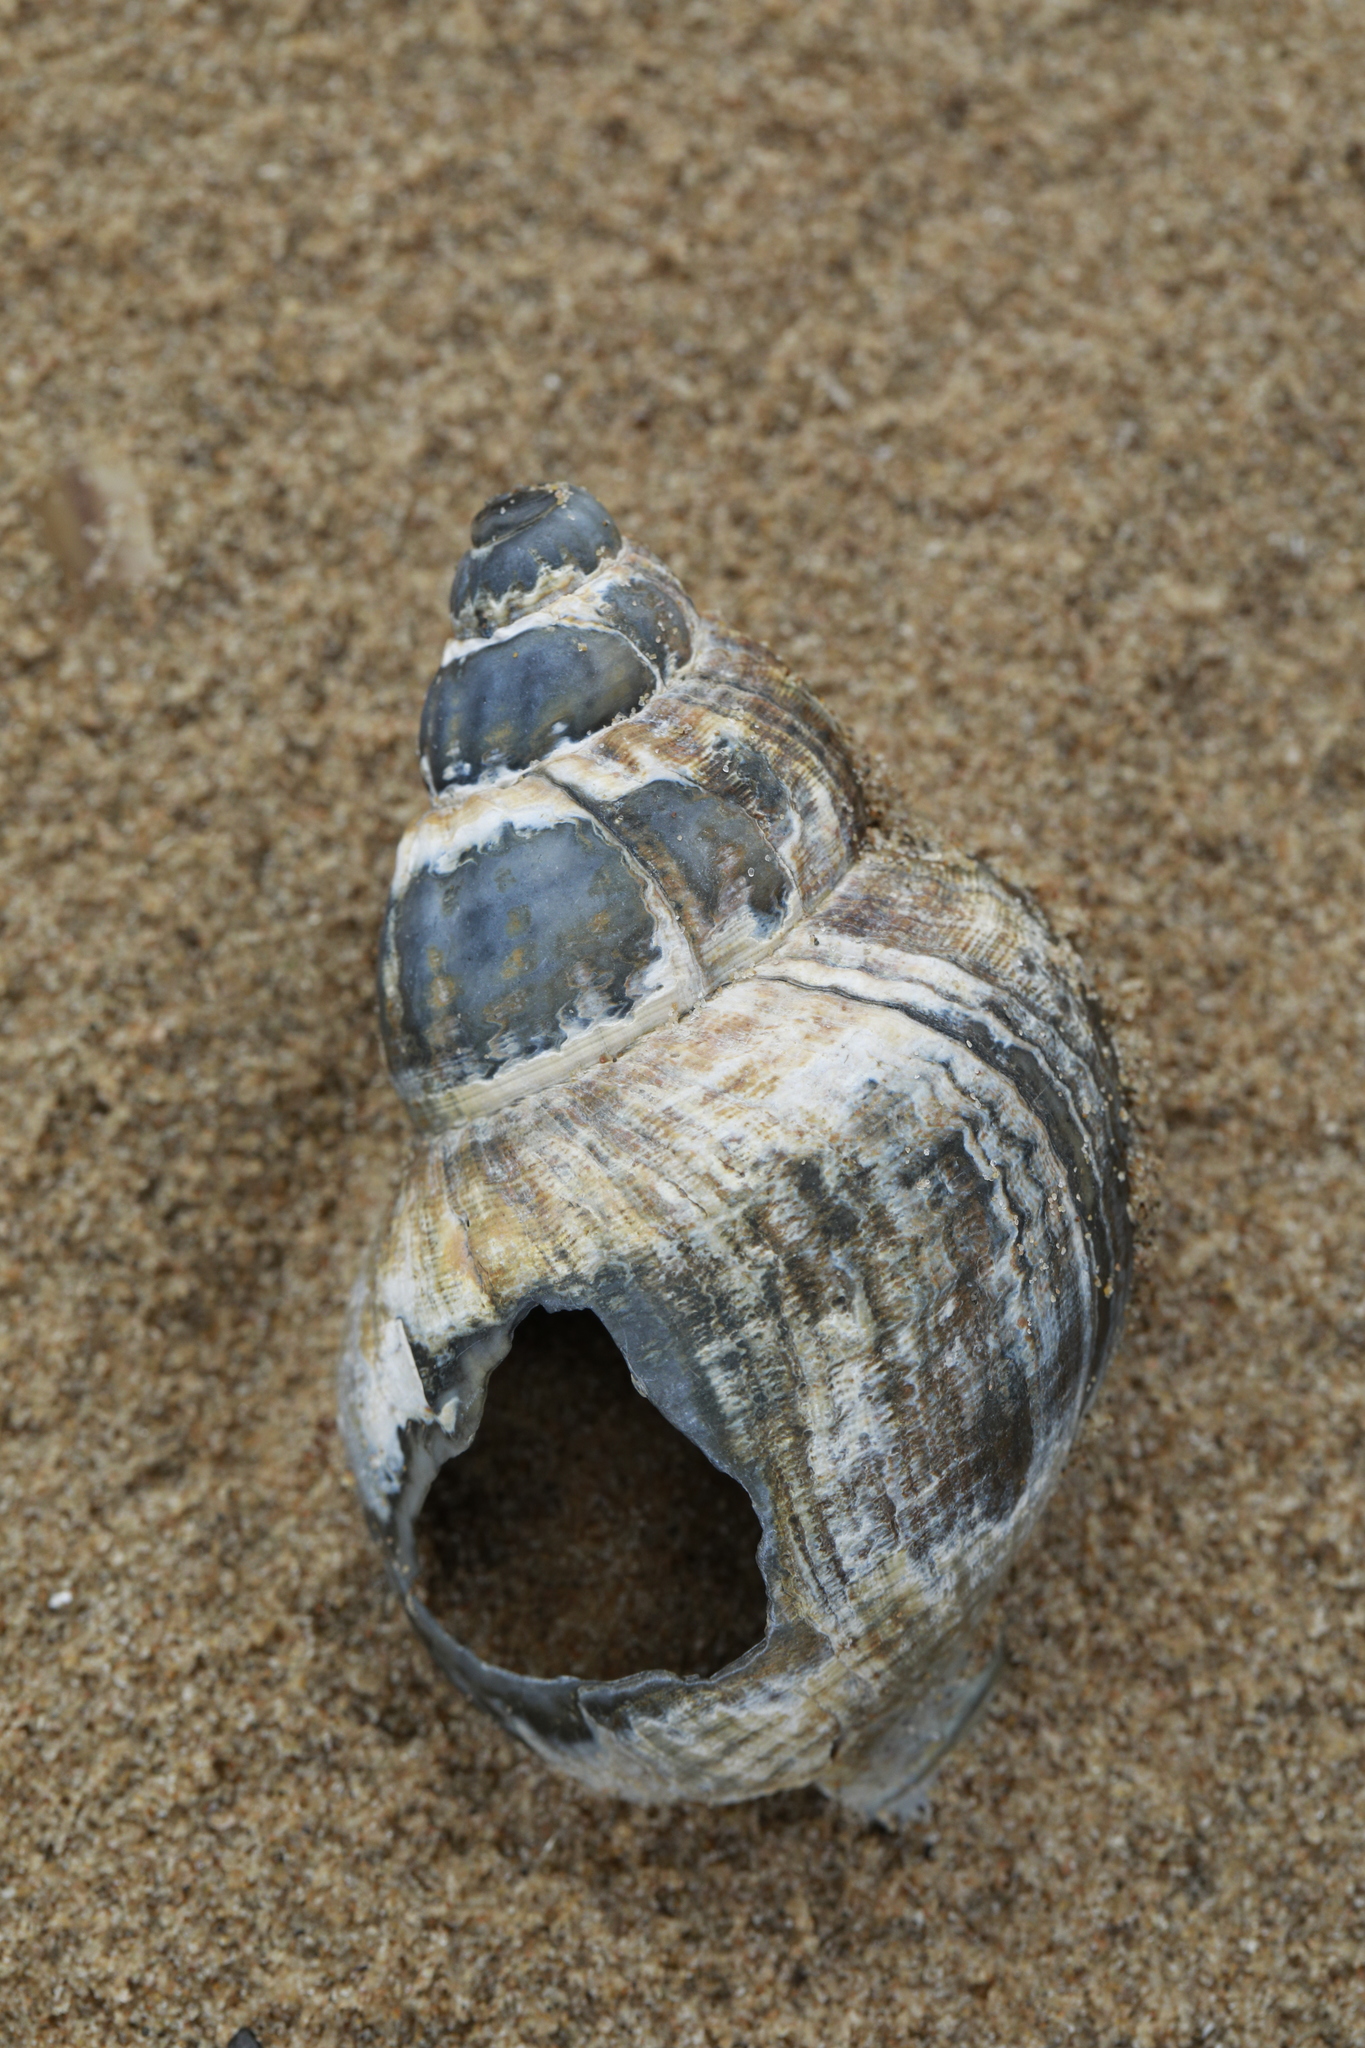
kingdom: Animalia
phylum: Mollusca
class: Gastropoda
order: Neogastropoda
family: Buccinidae
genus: Buccinum
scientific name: Buccinum undatum
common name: Common whelk
